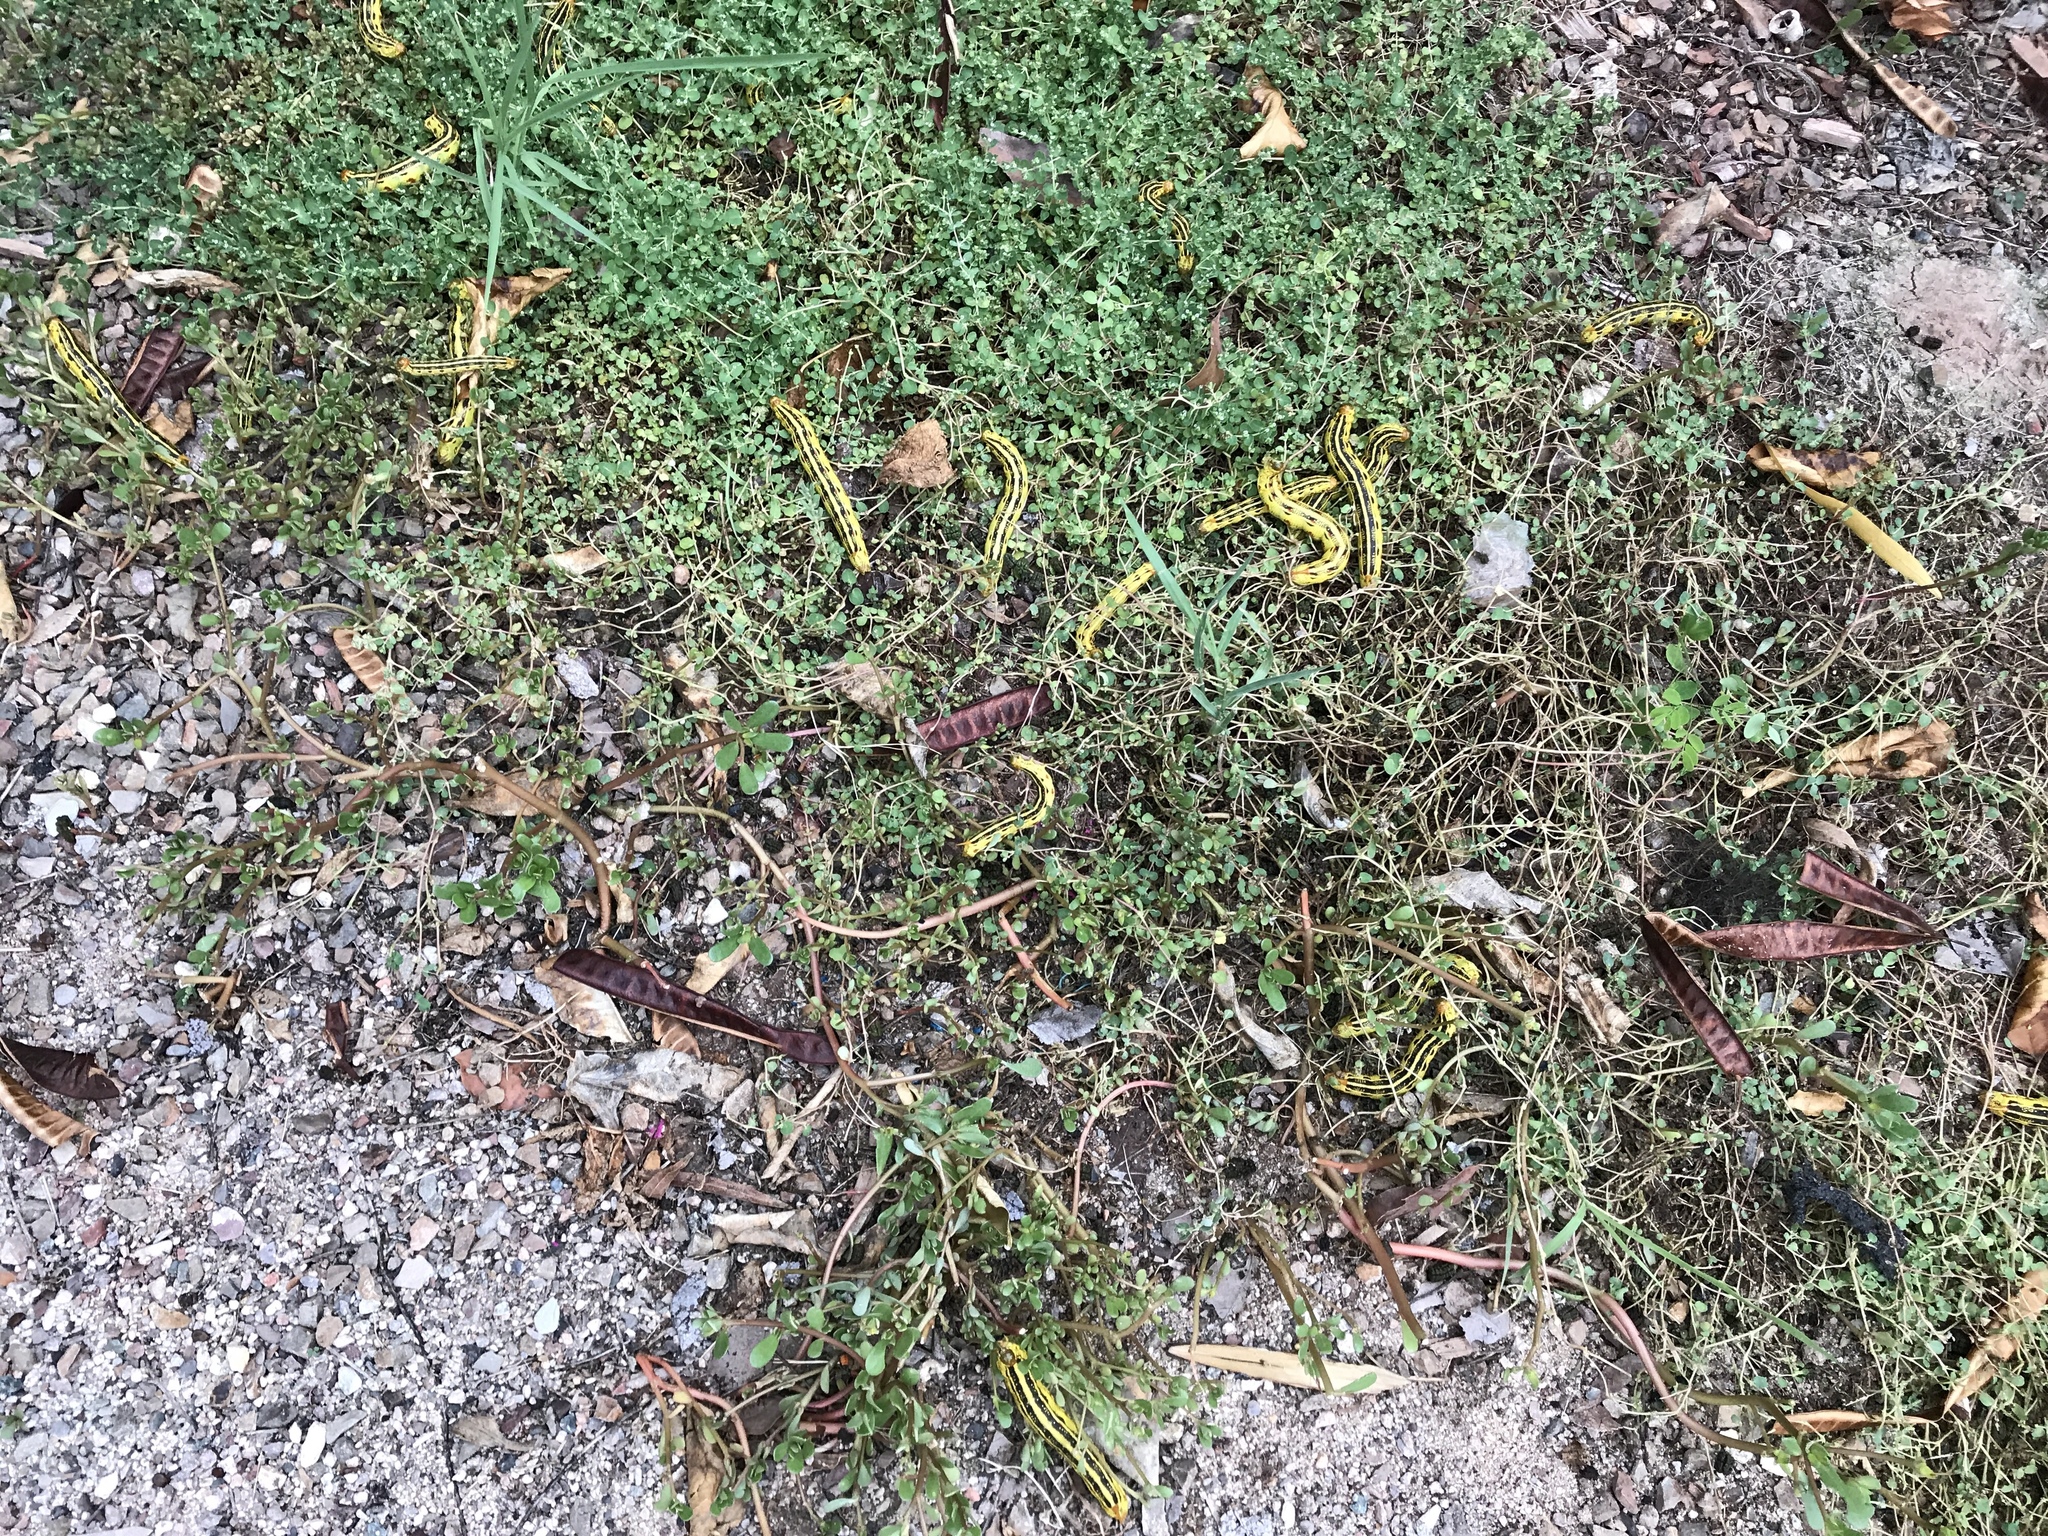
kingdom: Animalia
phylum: Arthropoda
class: Insecta
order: Lepidoptera
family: Sphingidae
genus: Hyles
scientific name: Hyles lineata
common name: White-lined sphinx
